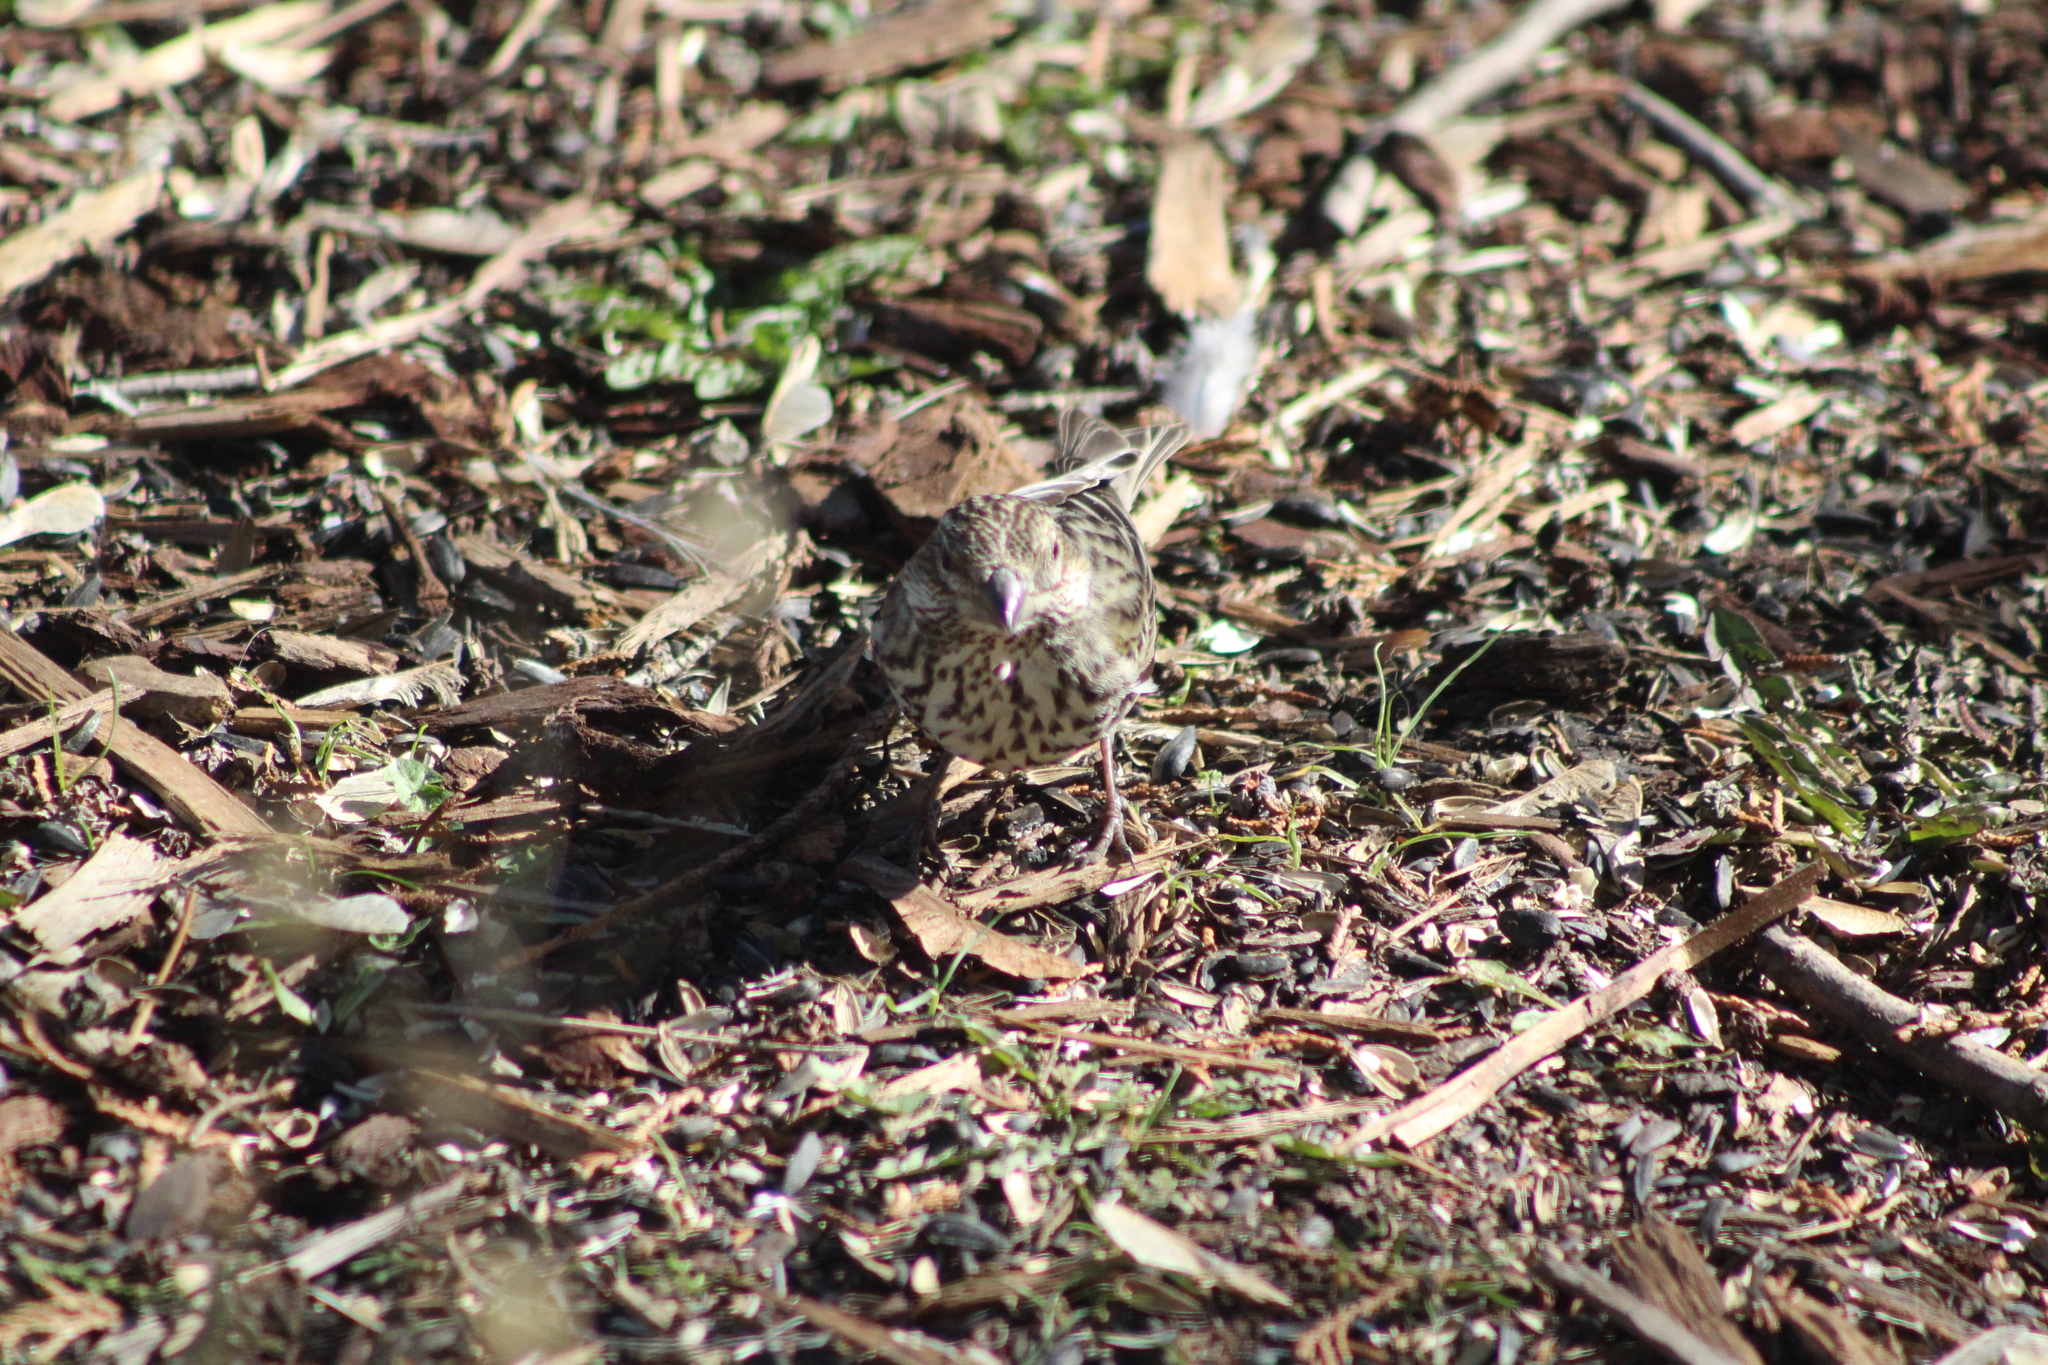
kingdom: Animalia
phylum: Chordata
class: Aves
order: Passeriformes
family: Fringillidae
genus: Haemorhous
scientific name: Haemorhous cassinii
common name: Cassin's finch
